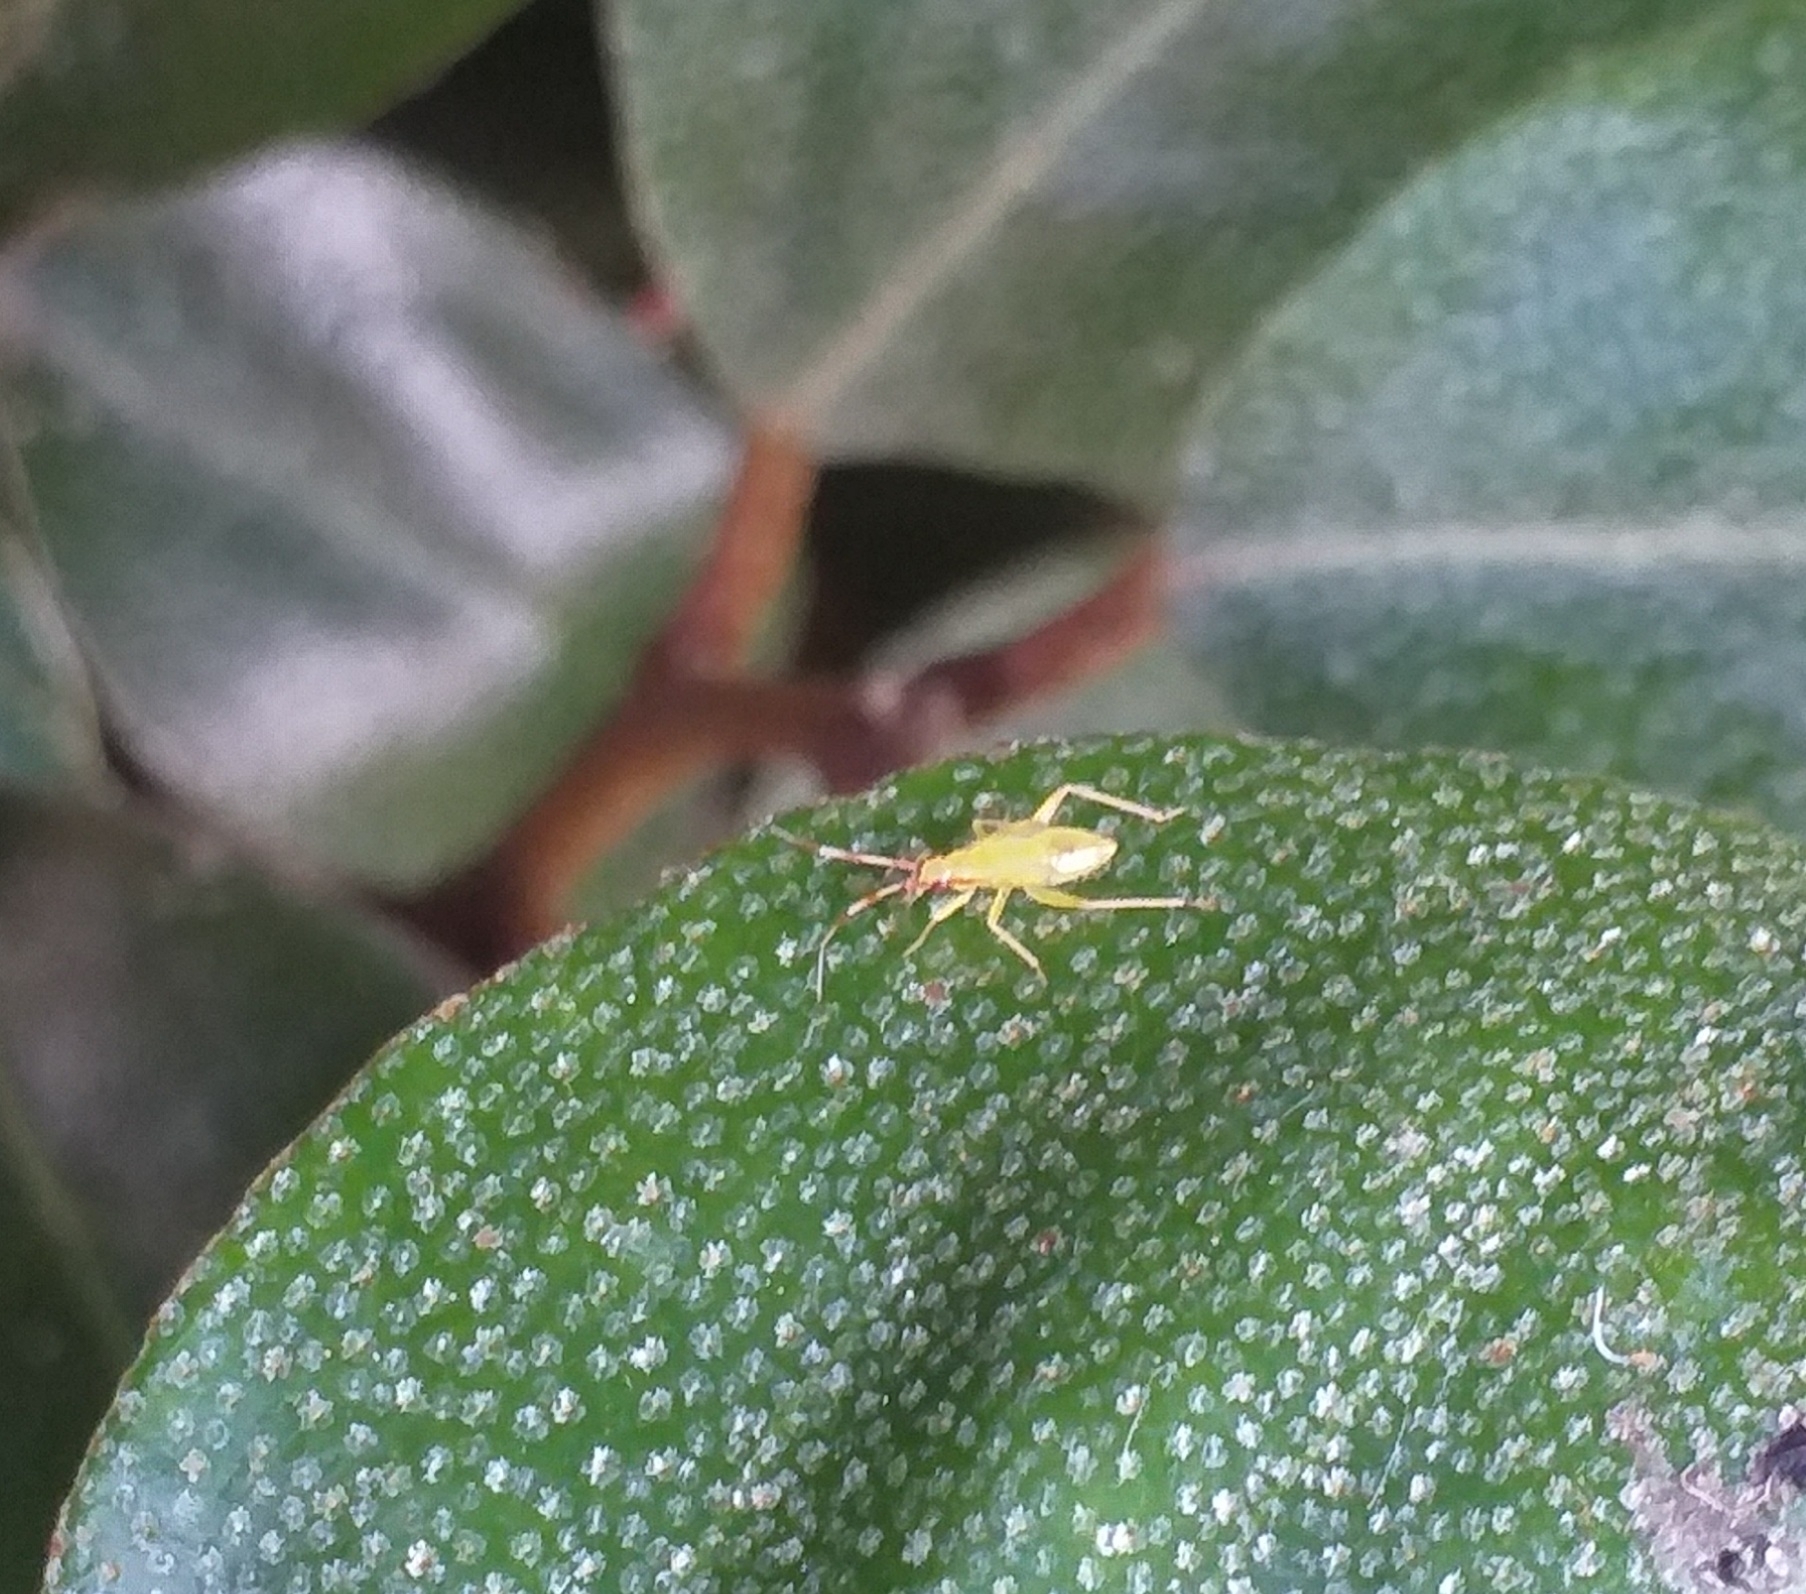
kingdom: Animalia
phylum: Arthropoda
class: Insecta
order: Hemiptera
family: Miridae
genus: Campyloneura
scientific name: Campyloneura virgula
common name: Predatory bug
